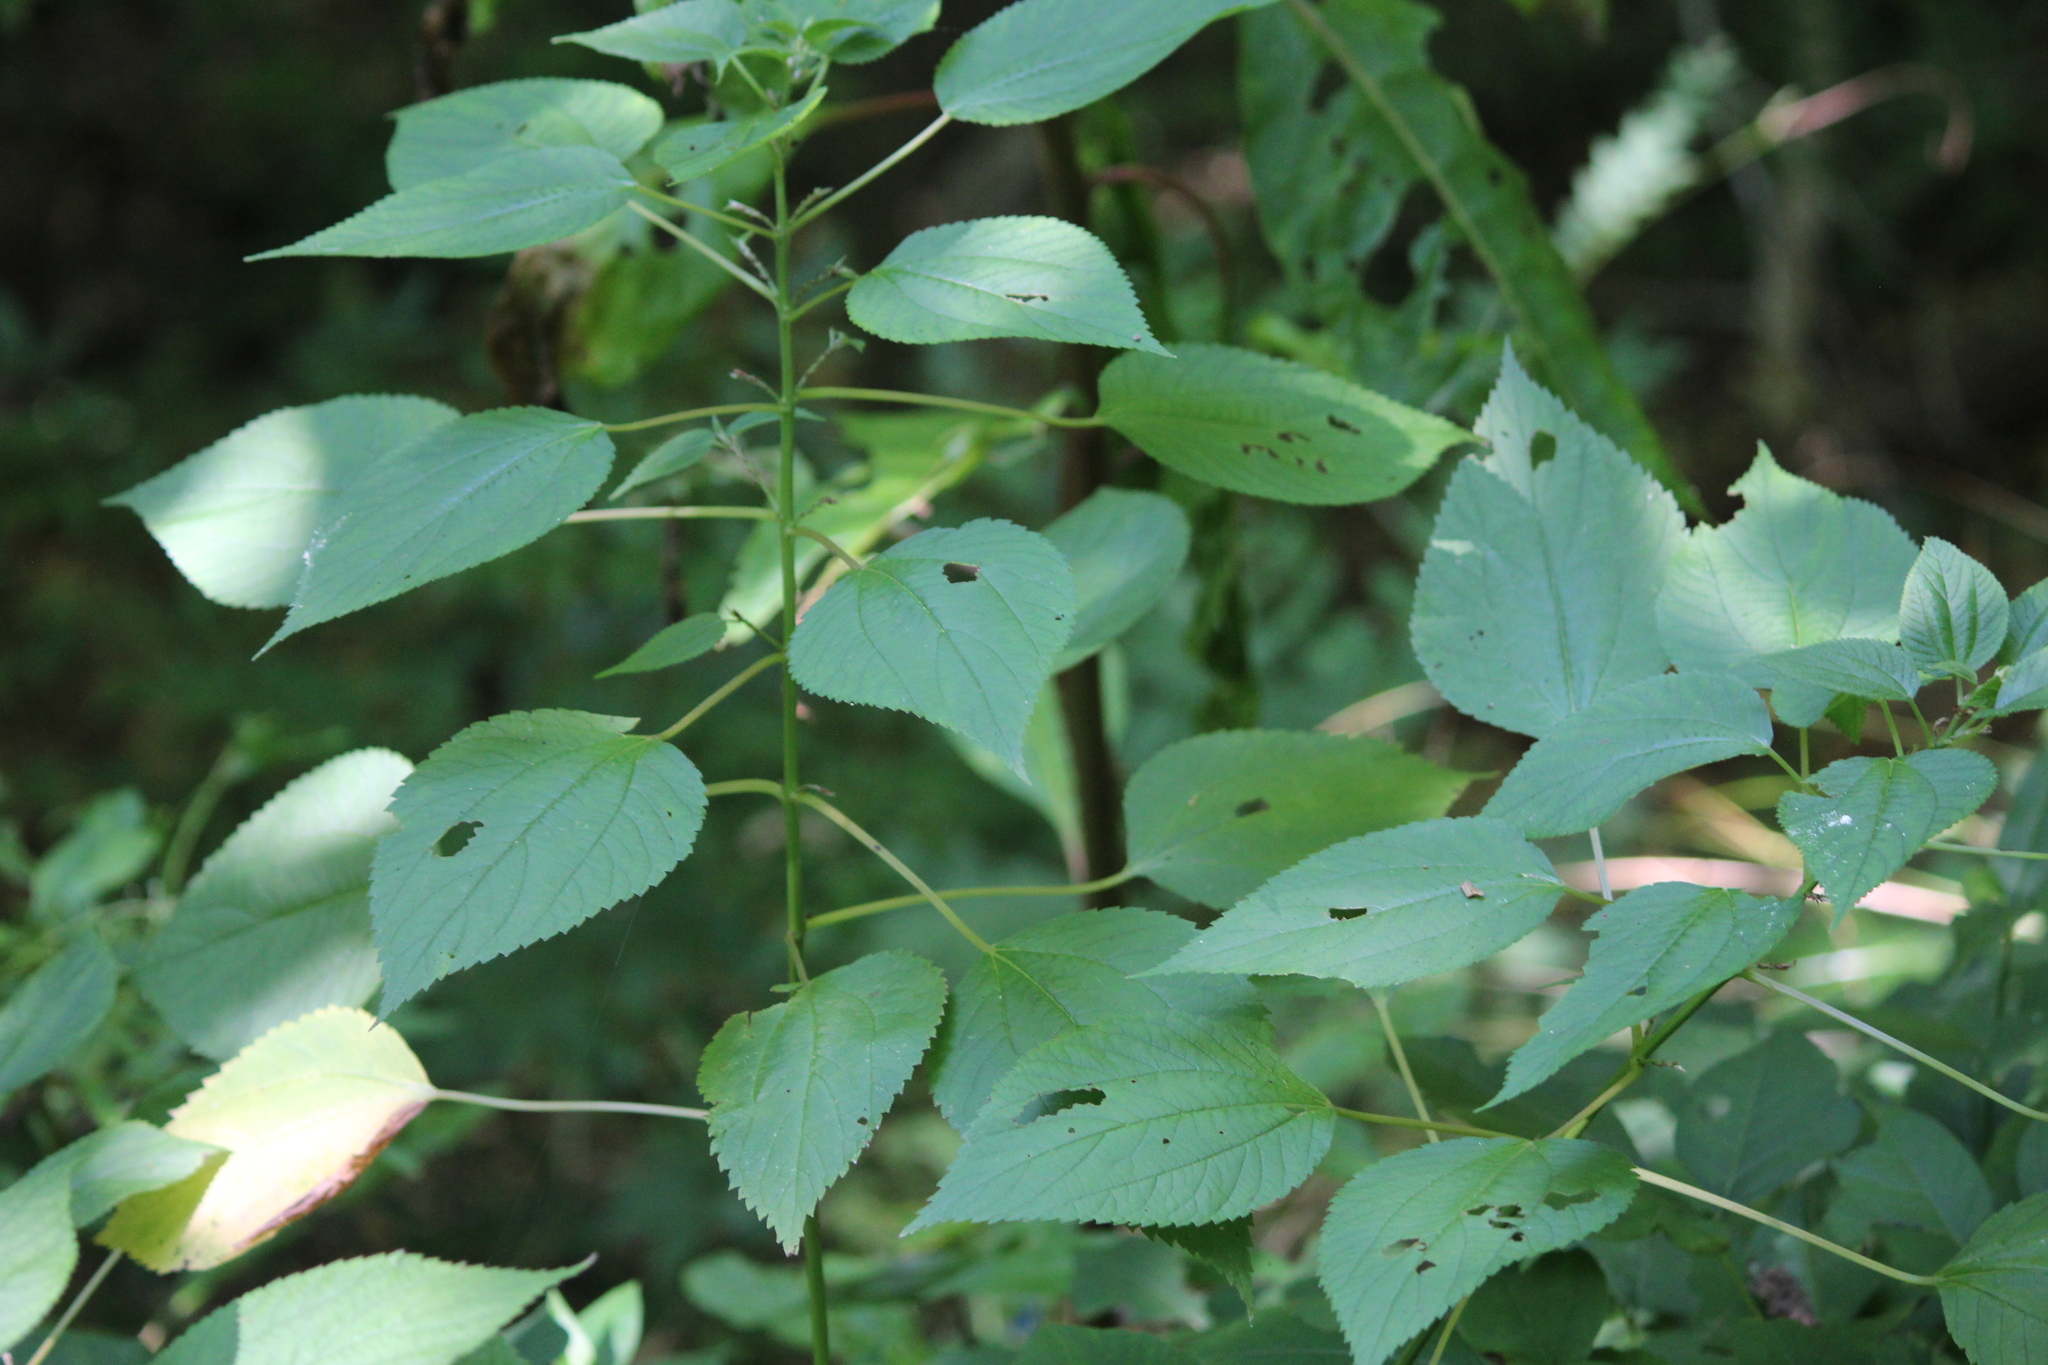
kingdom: Plantae
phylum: Tracheophyta
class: Magnoliopsida
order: Rosales
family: Urticaceae
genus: Boehmeria
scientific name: Boehmeria cylindrica
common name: Bog-hemp
